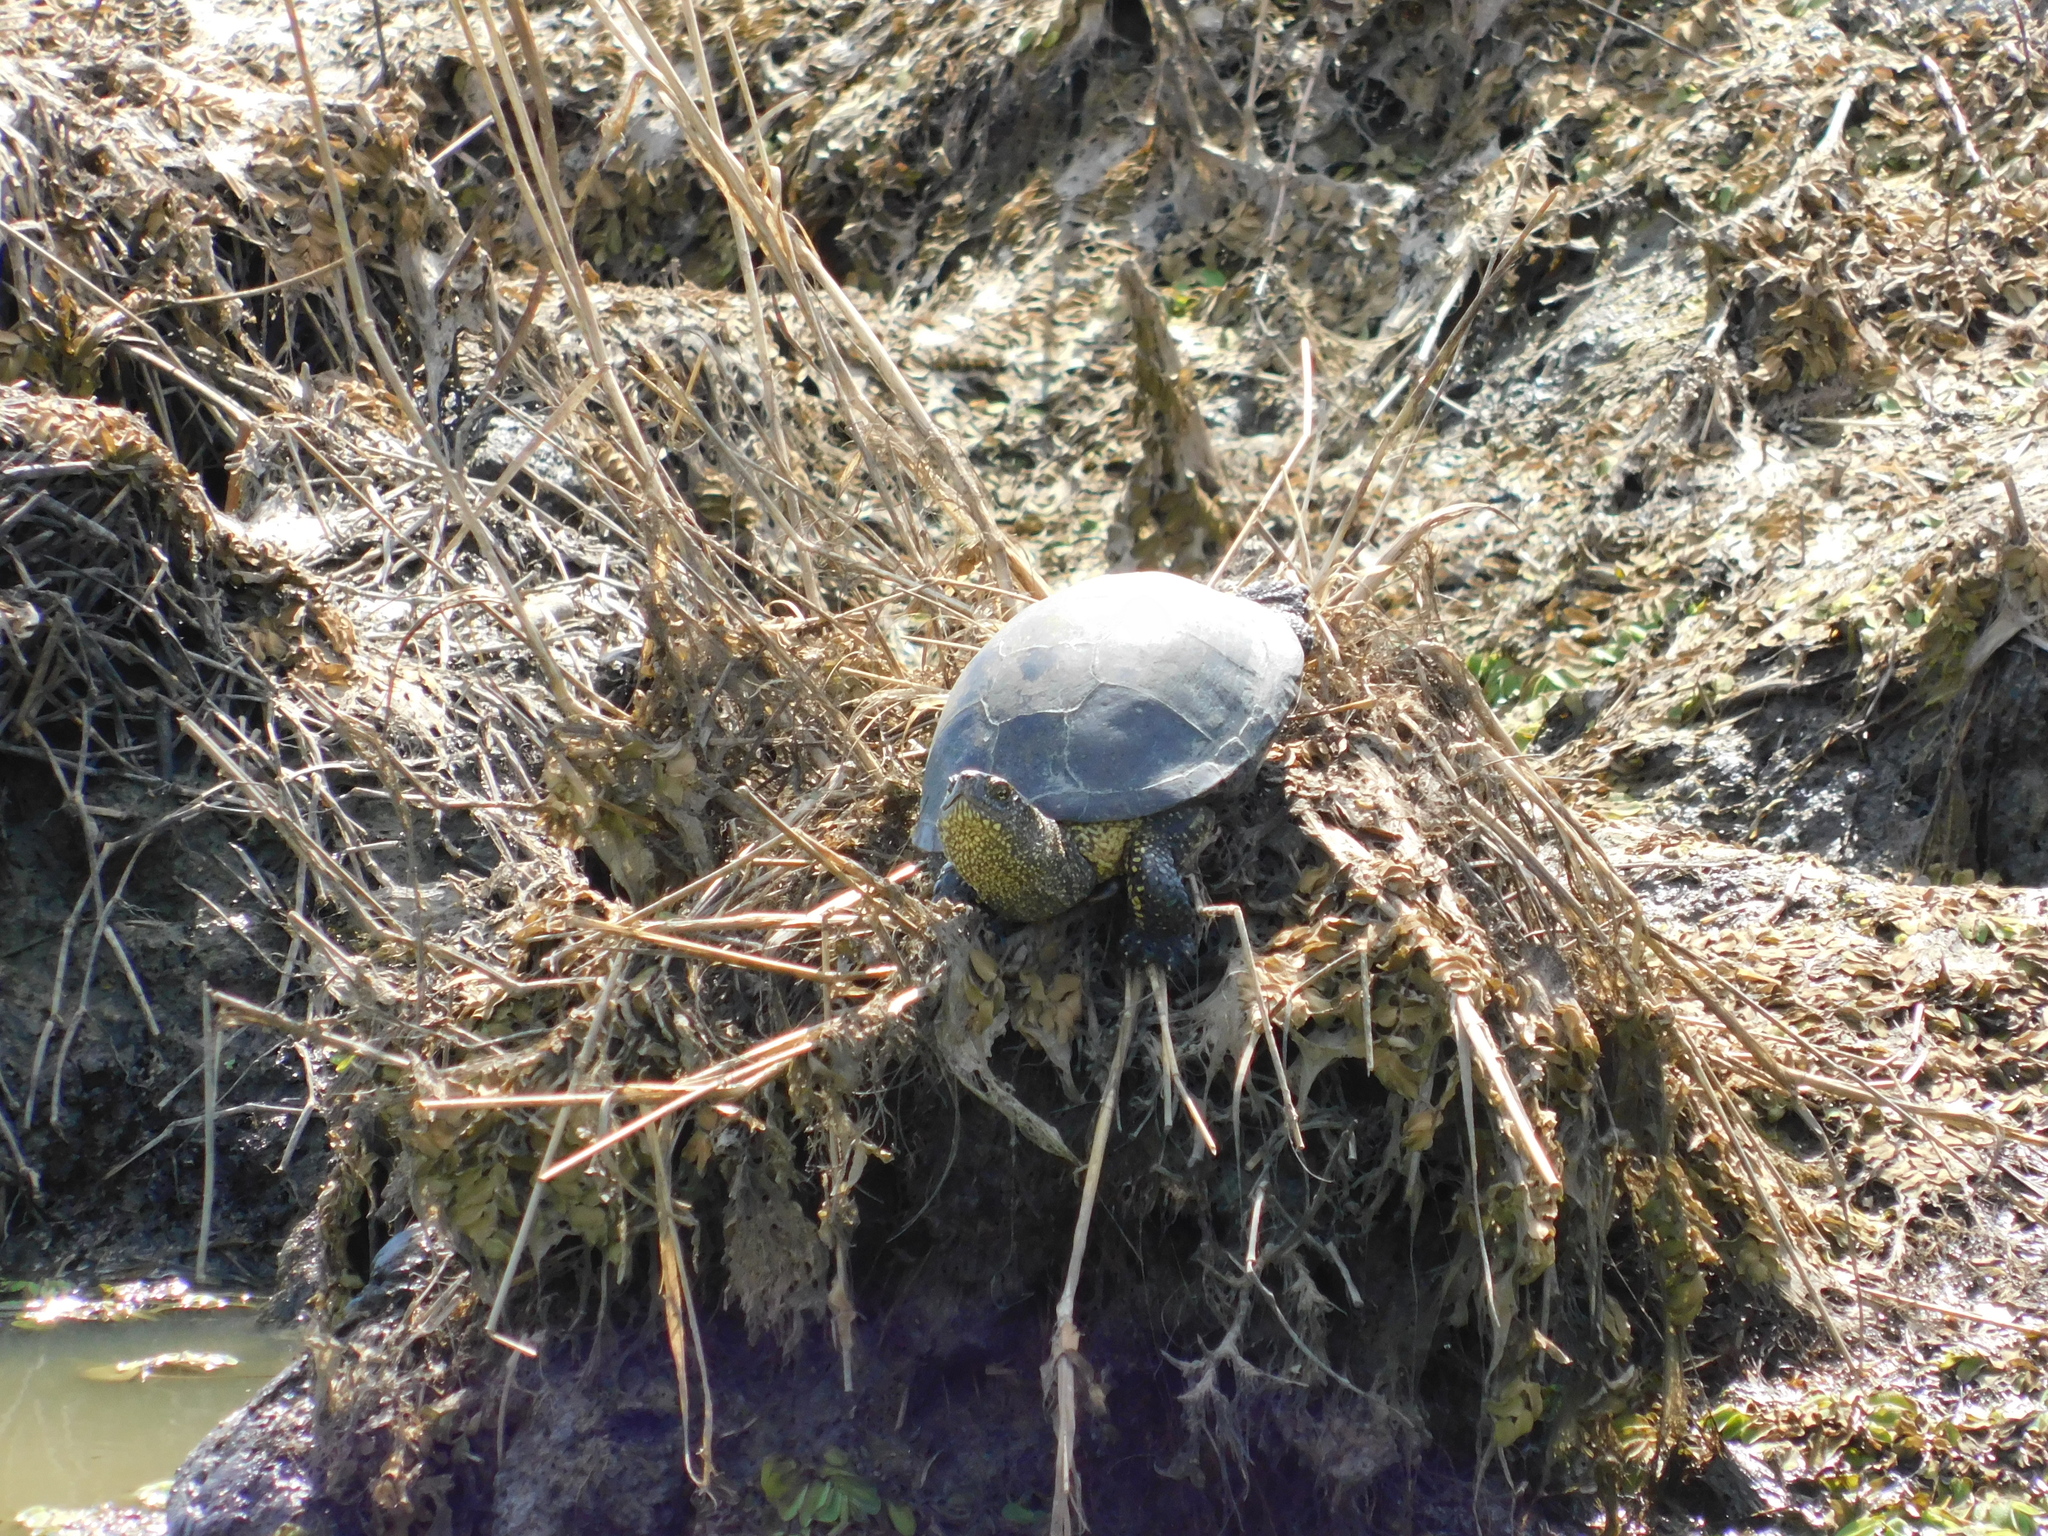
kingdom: Animalia
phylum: Chordata
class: Testudines
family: Emydidae
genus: Emys
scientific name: Emys orbicularis
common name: European pond turtle
